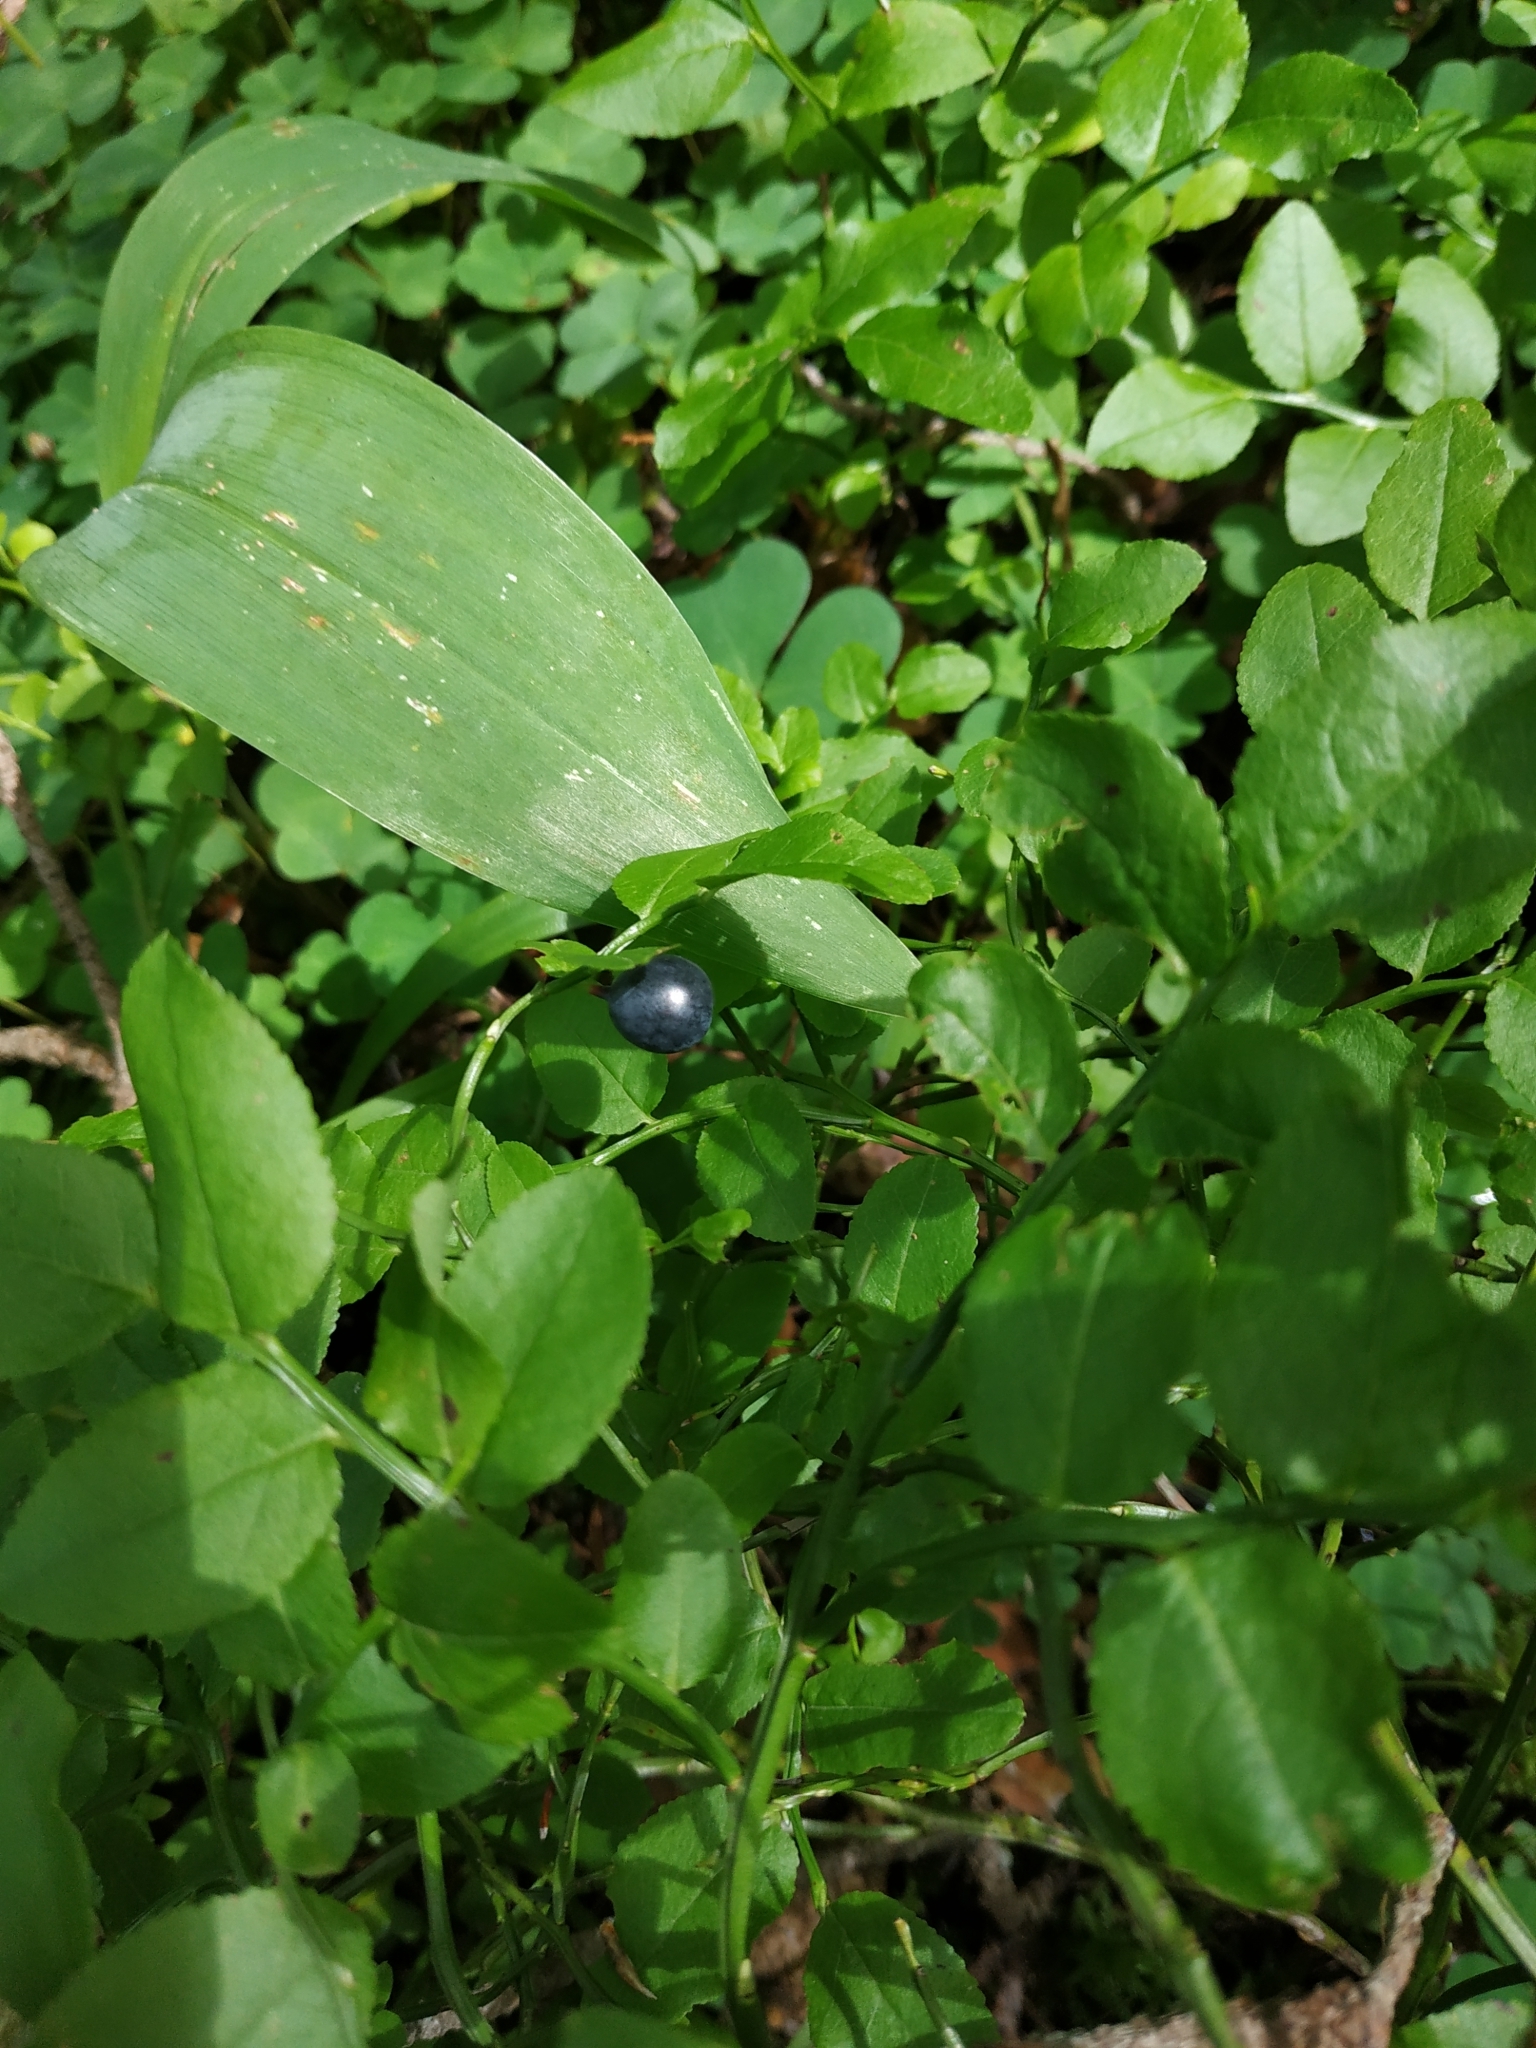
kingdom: Plantae
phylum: Tracheophyta
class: Magnoliopsida
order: Ericales
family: Ericaceae
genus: Vaccinium
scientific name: Vaccinium myrtillus
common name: Bilberry
